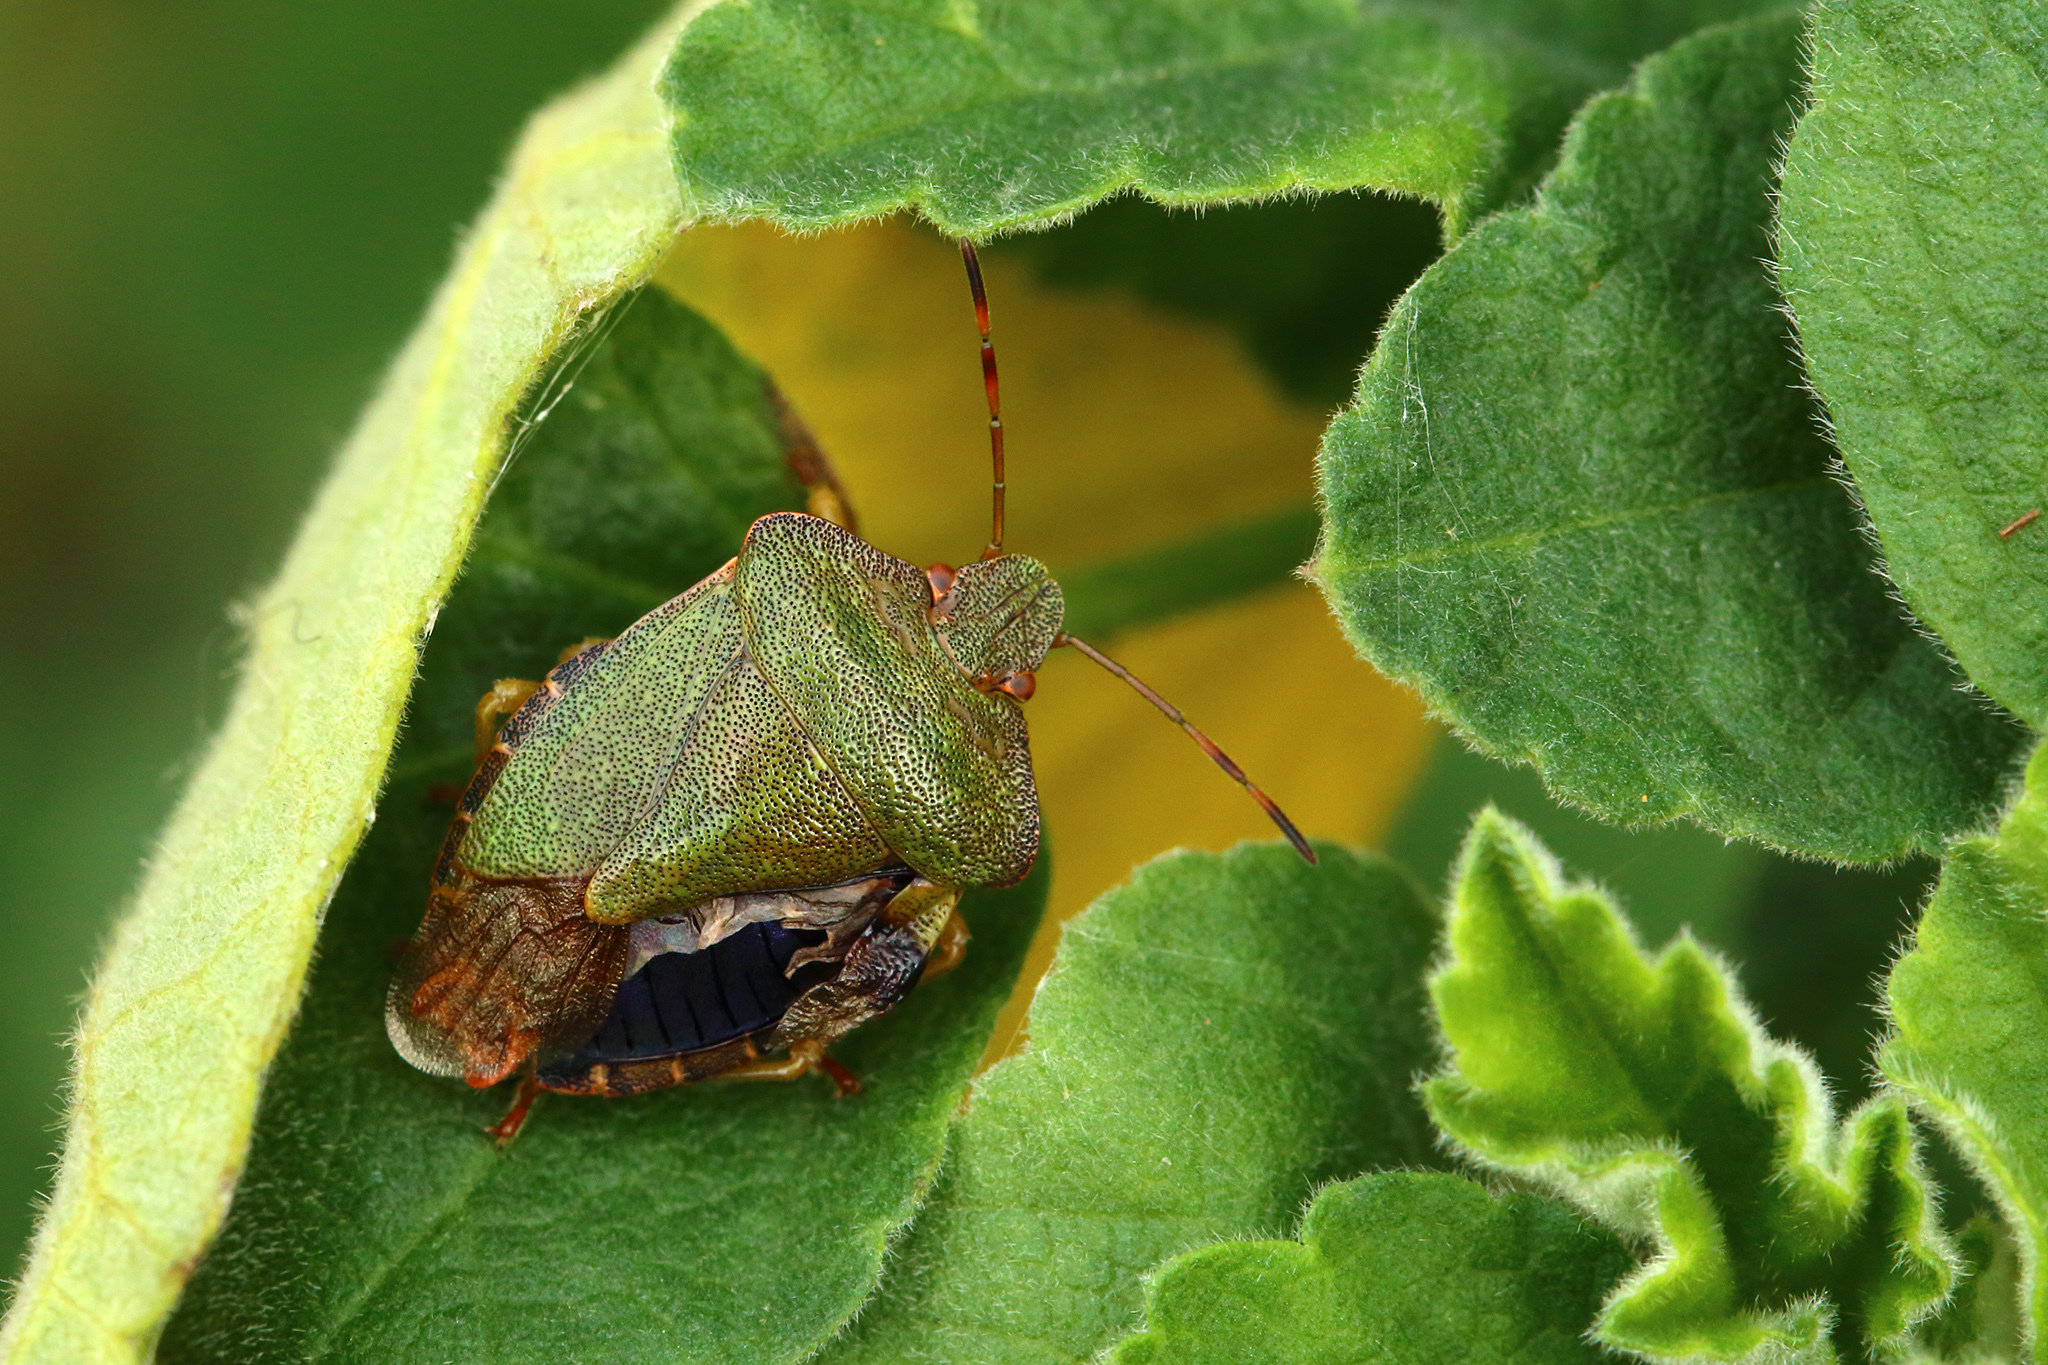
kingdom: Animalia
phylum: Arthropoda
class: Insecta
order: Hemiptera
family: Pentatomidae
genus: Palomena
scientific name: Palomena prasina
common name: Green shieldbug
